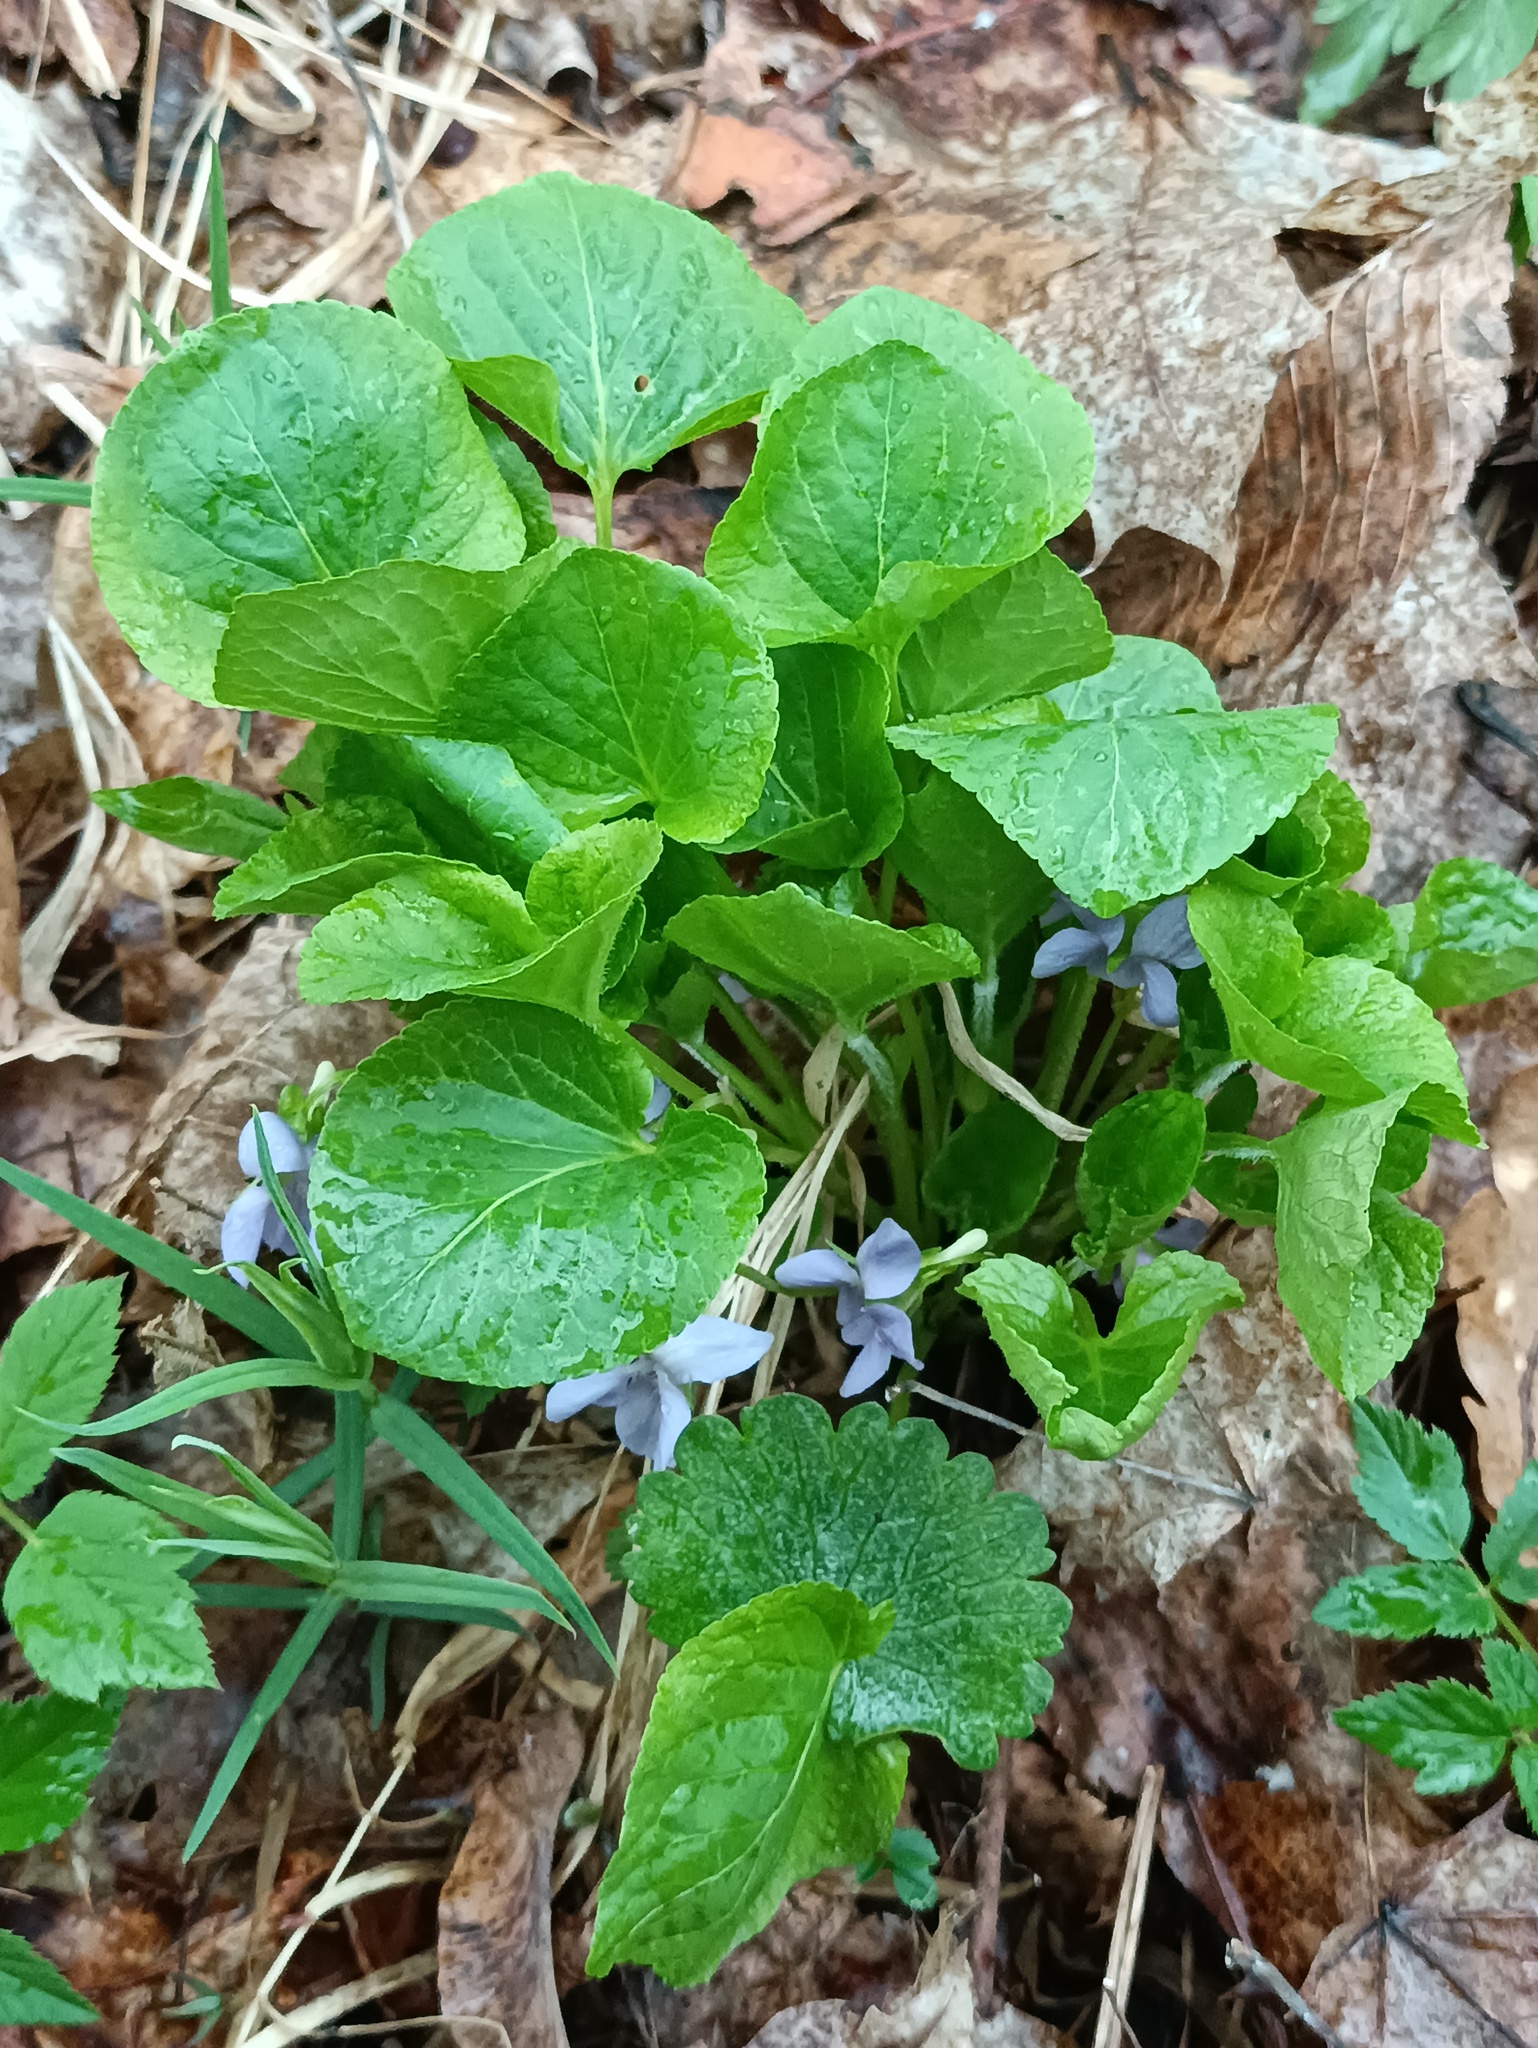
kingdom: Plantae
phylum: Tracheophyta
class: Magnoliopsida
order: Malpighiales
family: Violaceae
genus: Viola
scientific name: Viola mirabilis
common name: Wonder violet
